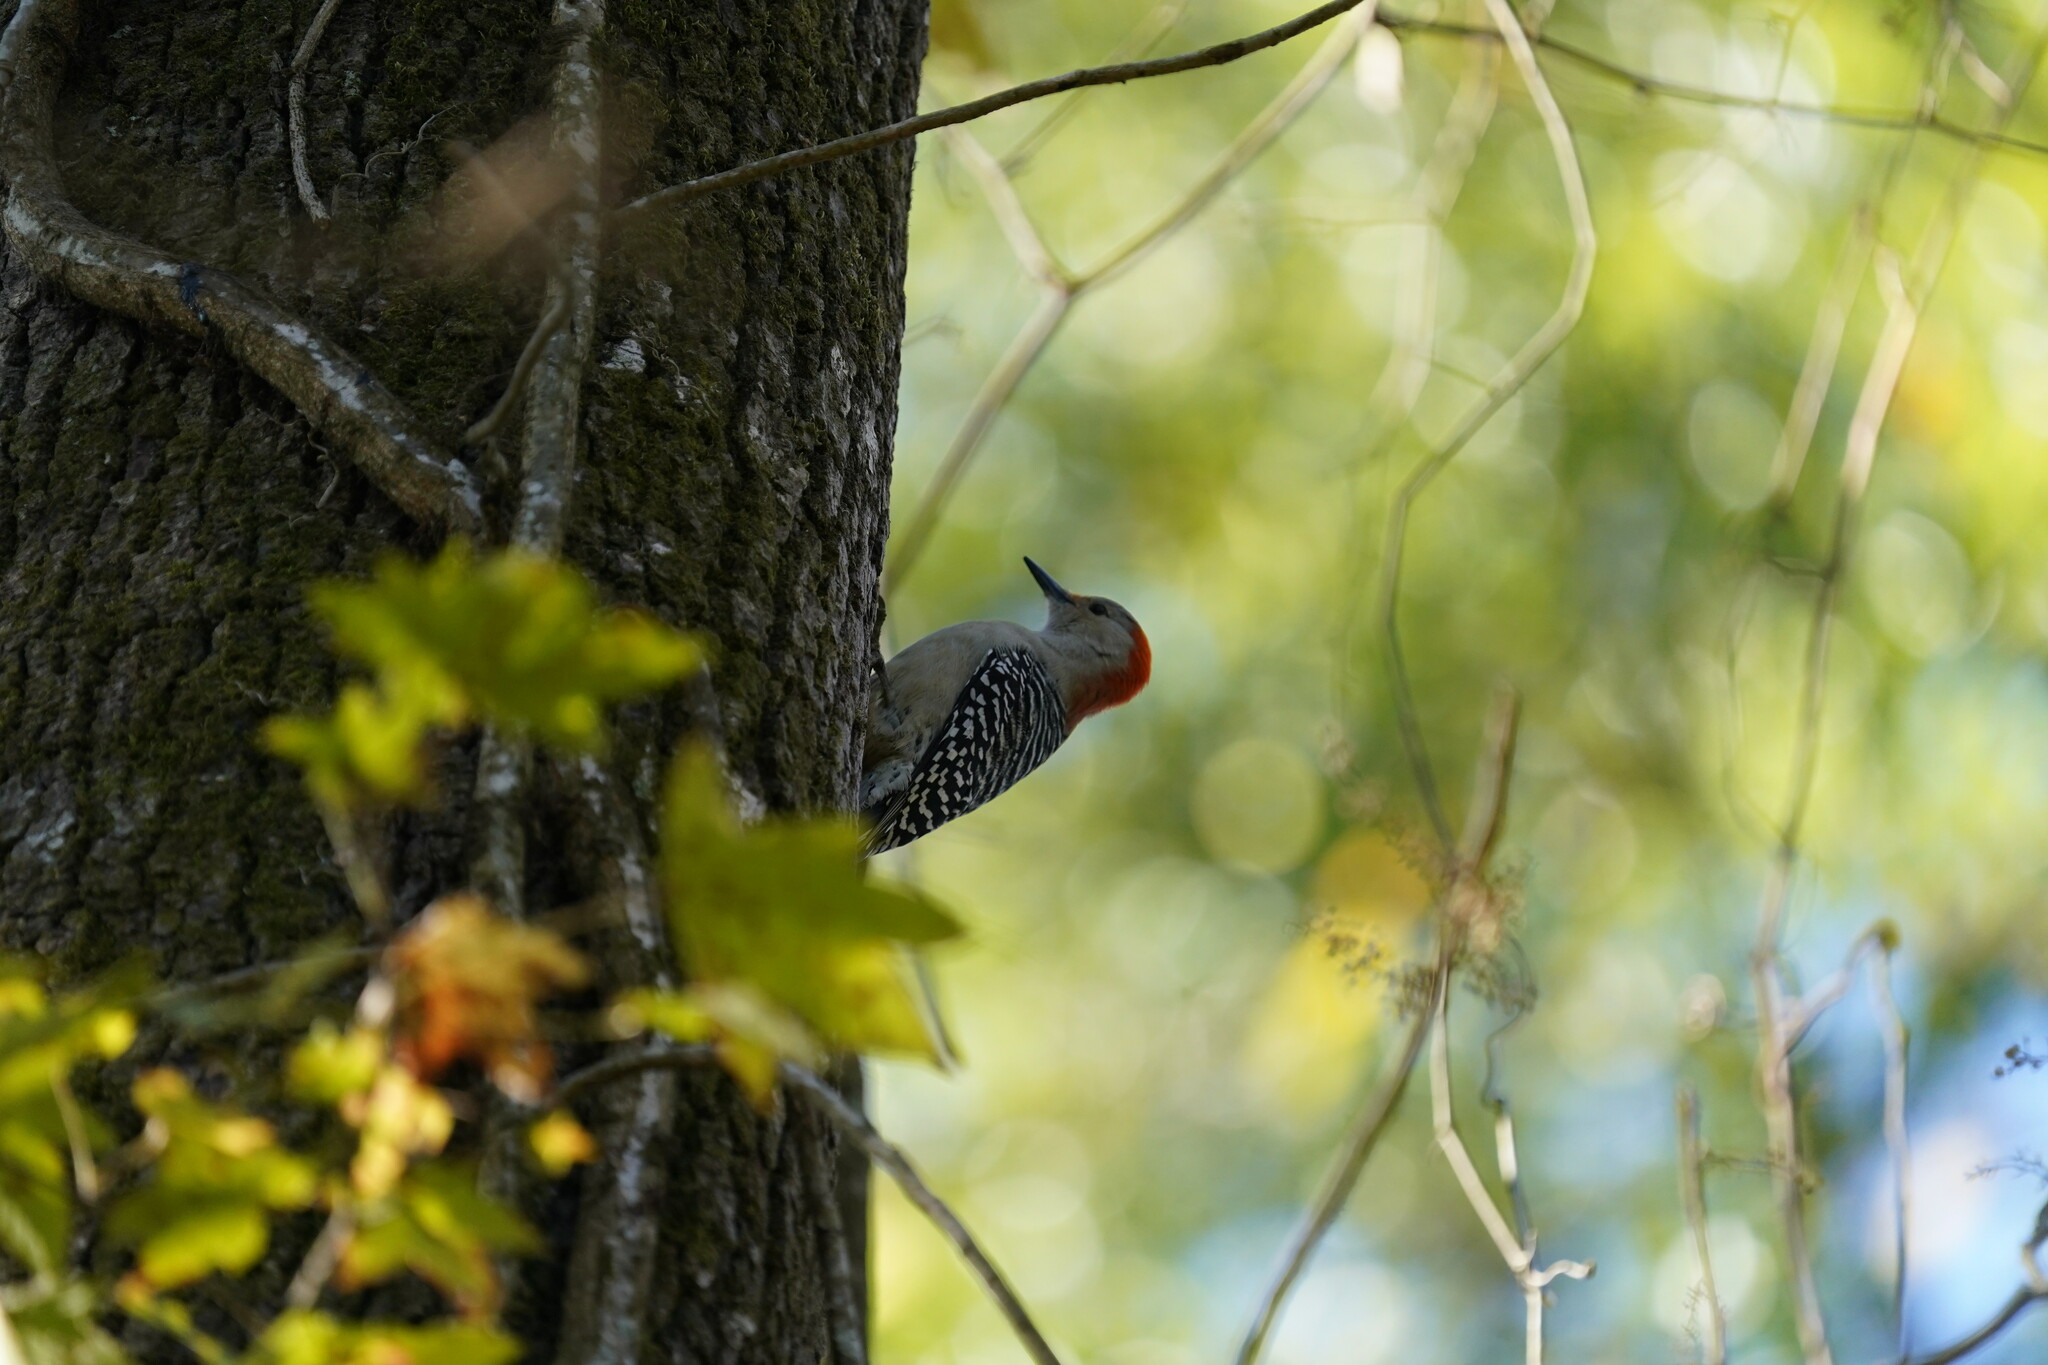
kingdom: Animalia
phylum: Chordata
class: Aves
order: Piciformes
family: Picidae
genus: Melanerpes
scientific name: Melanerpes carolinus
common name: Red-bellied woodpecker
